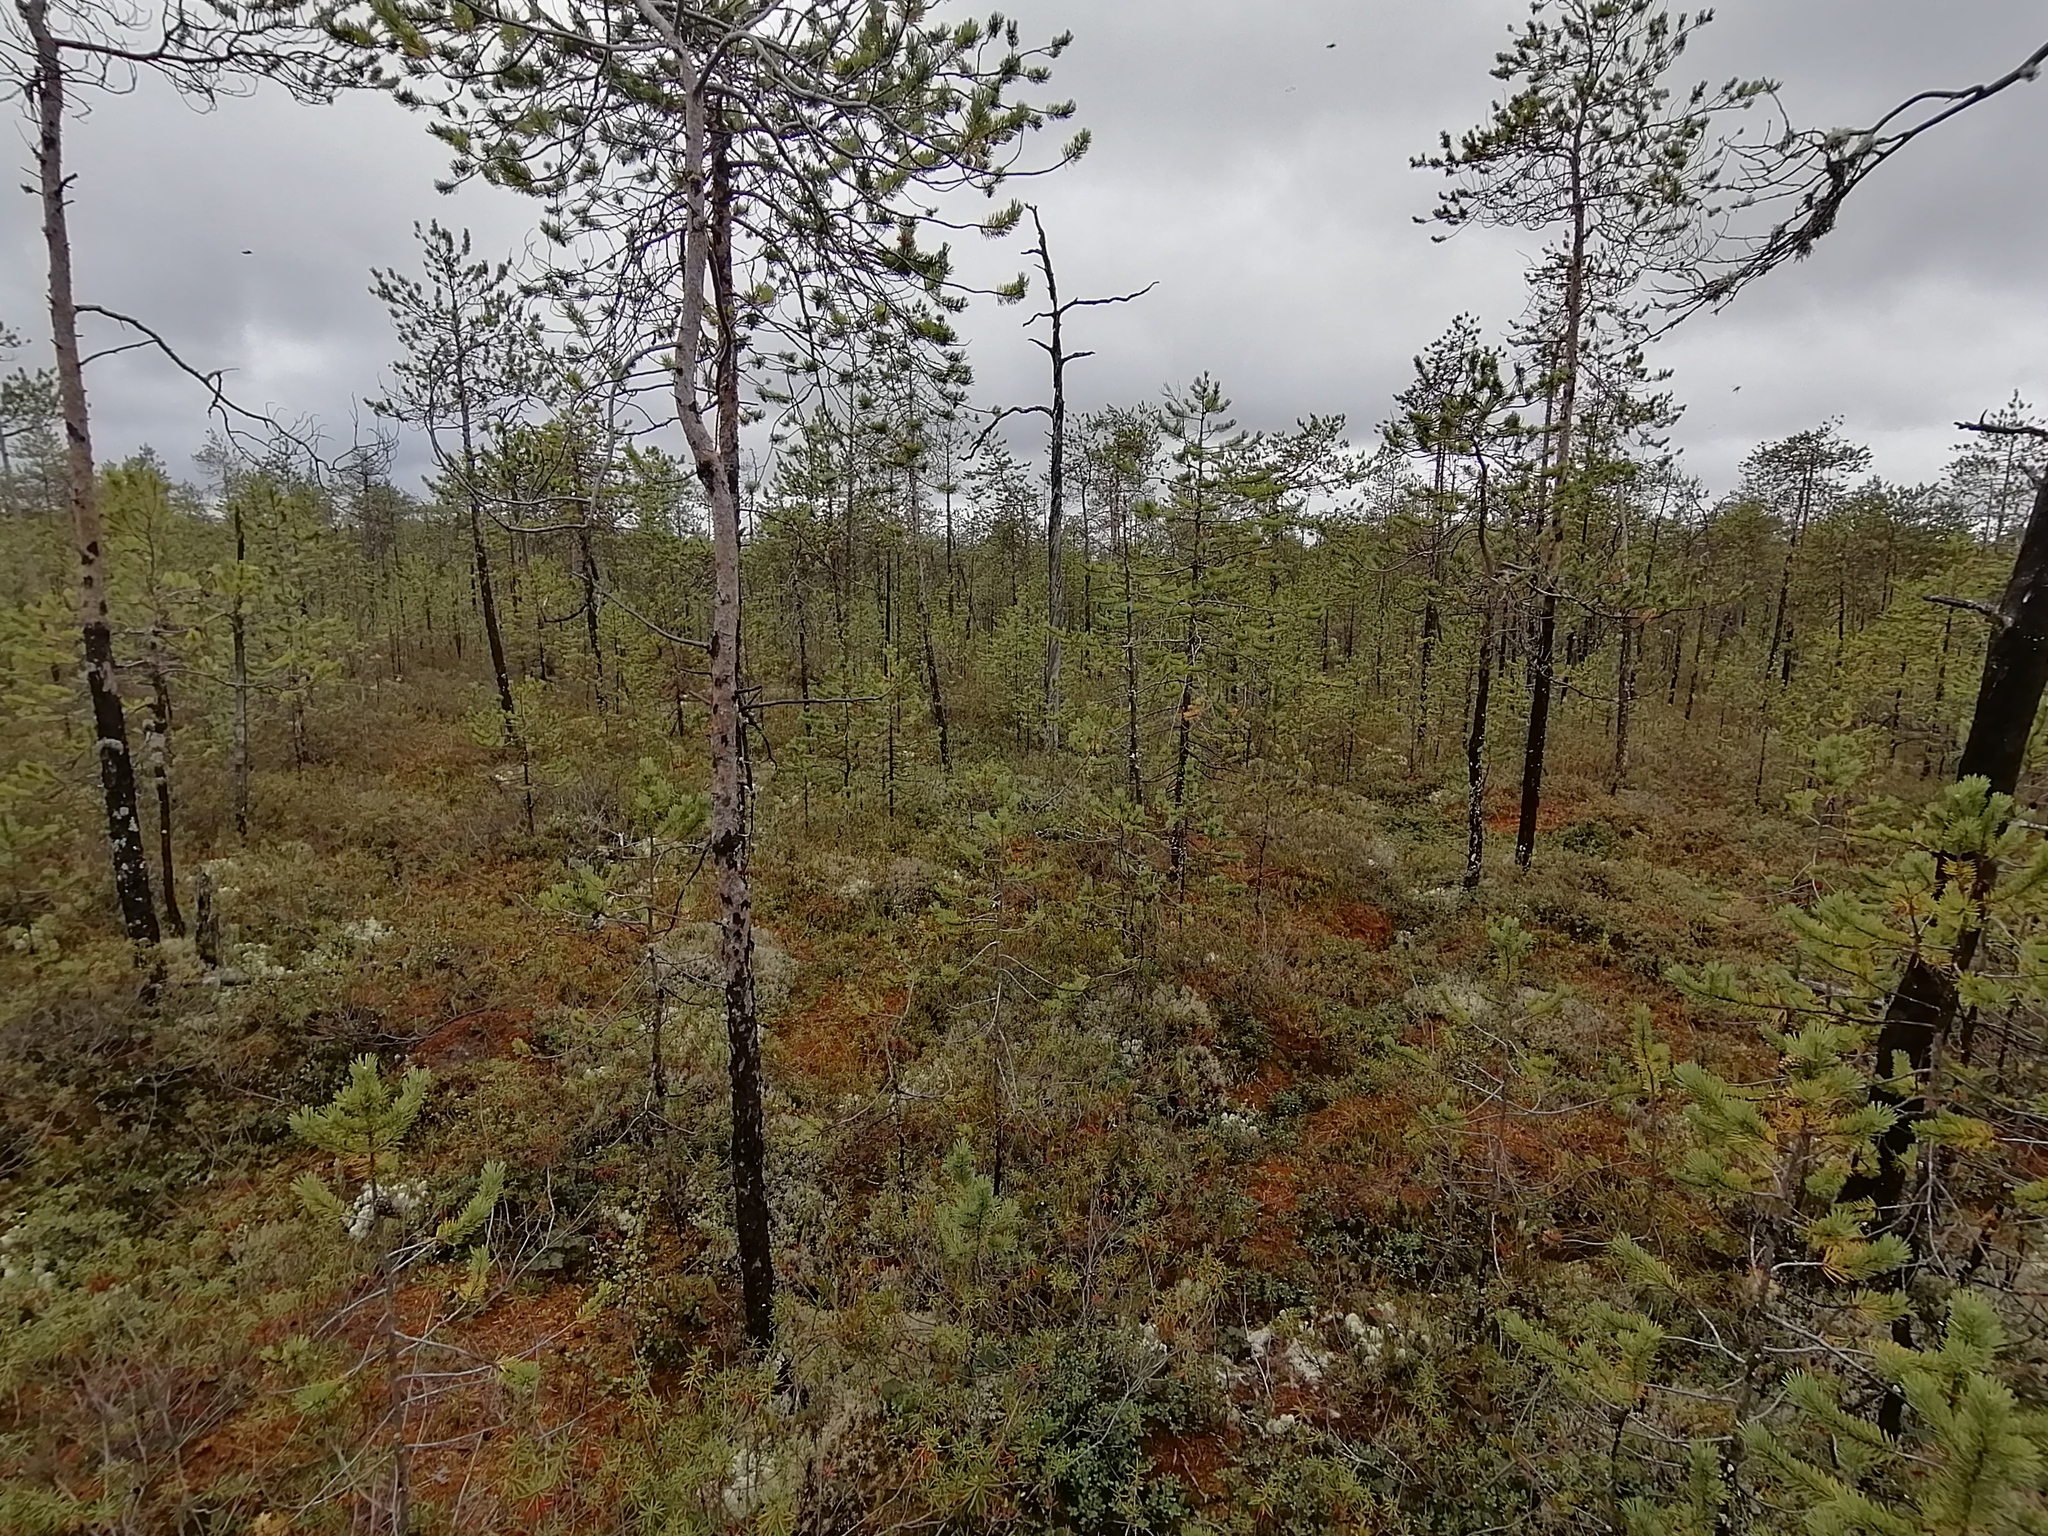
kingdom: Plantae
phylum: Tracheophyta
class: Pinopsida
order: Pinales
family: Pinaceae
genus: Pinus
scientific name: Pinus sylvestris
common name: Scots pine
